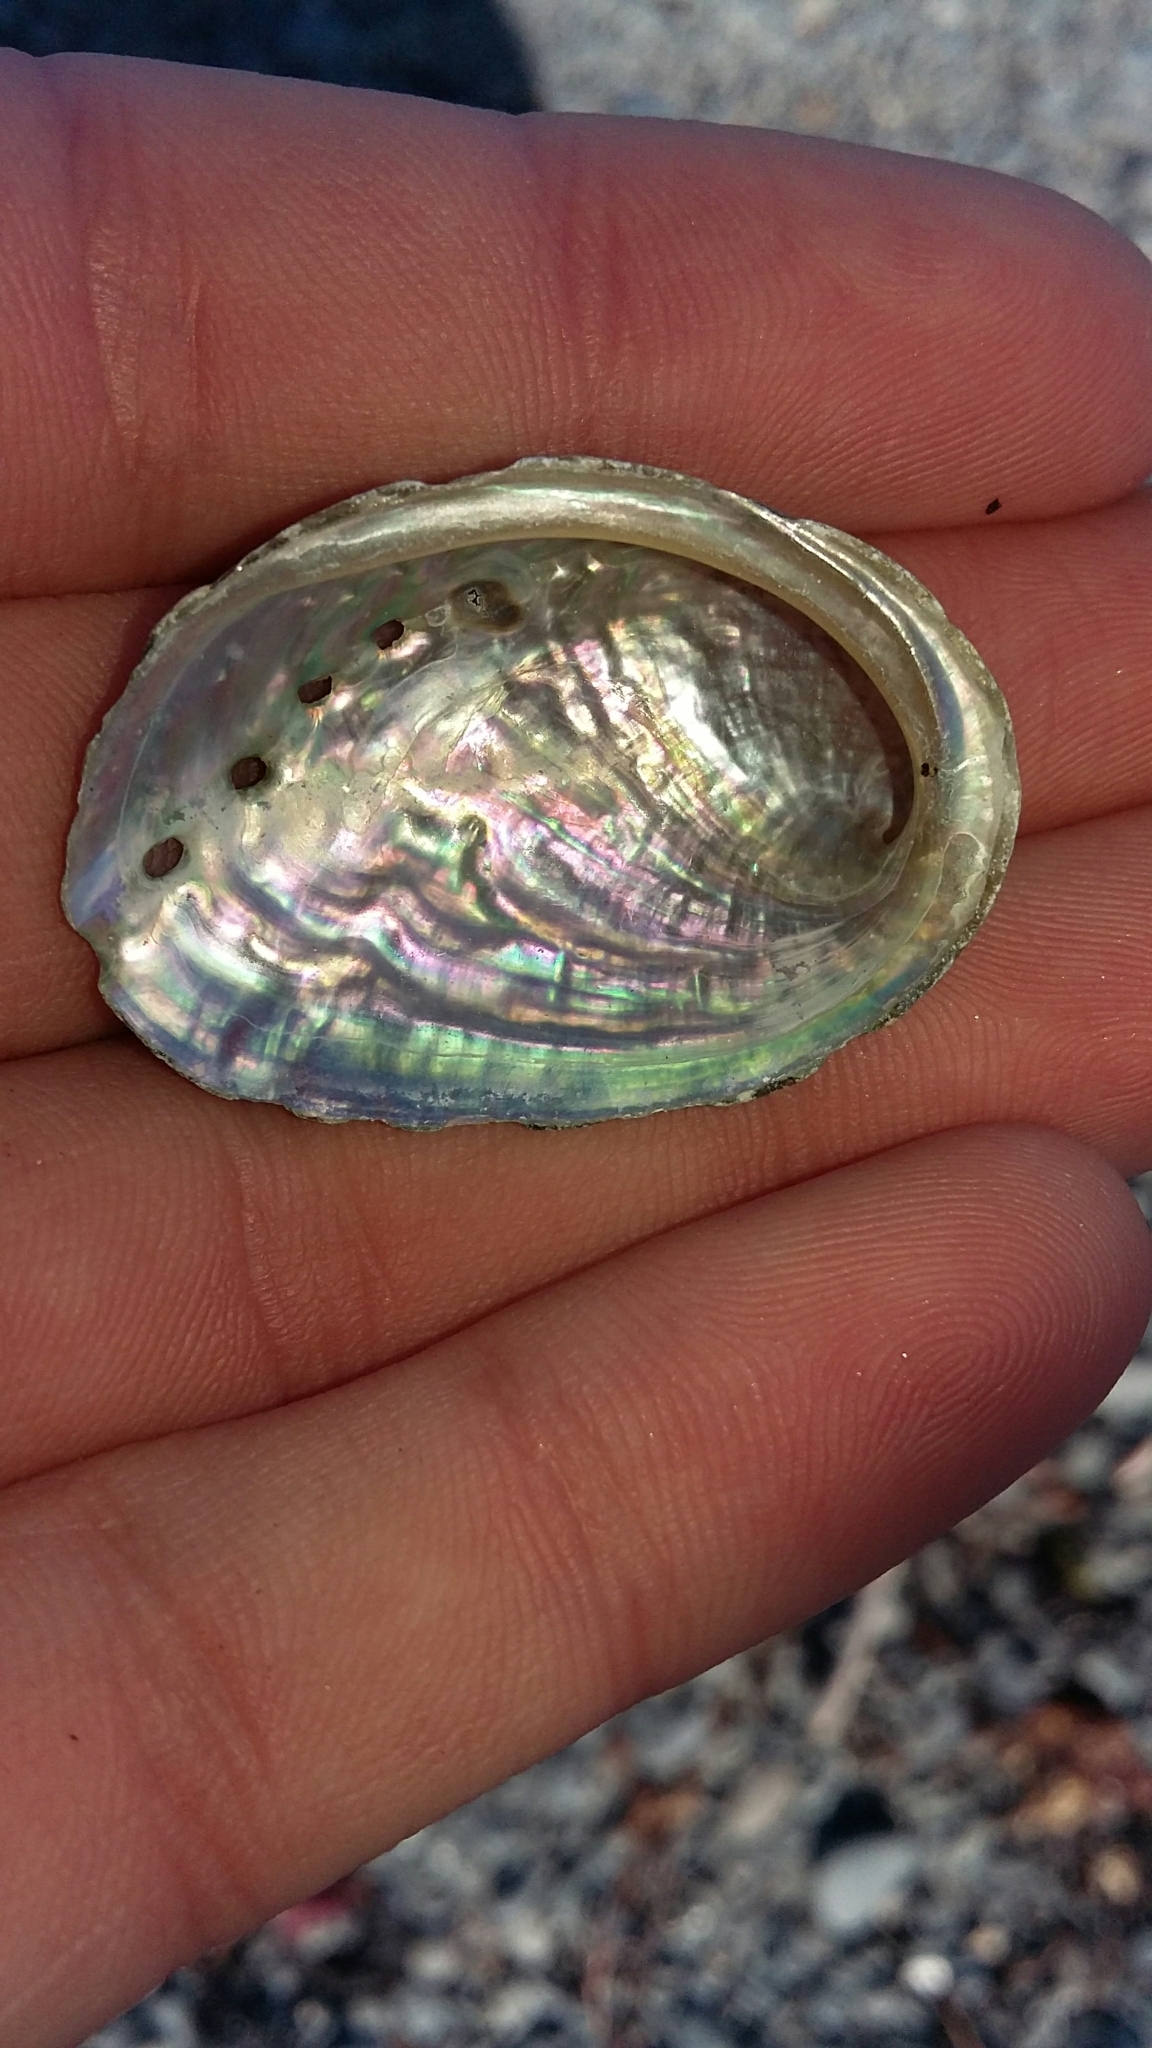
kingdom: Animalia
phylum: Mollusca
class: Gastropoda
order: Lepetellida
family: Haliotidae
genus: Haliotis
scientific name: Haliotis iris
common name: Abalone
